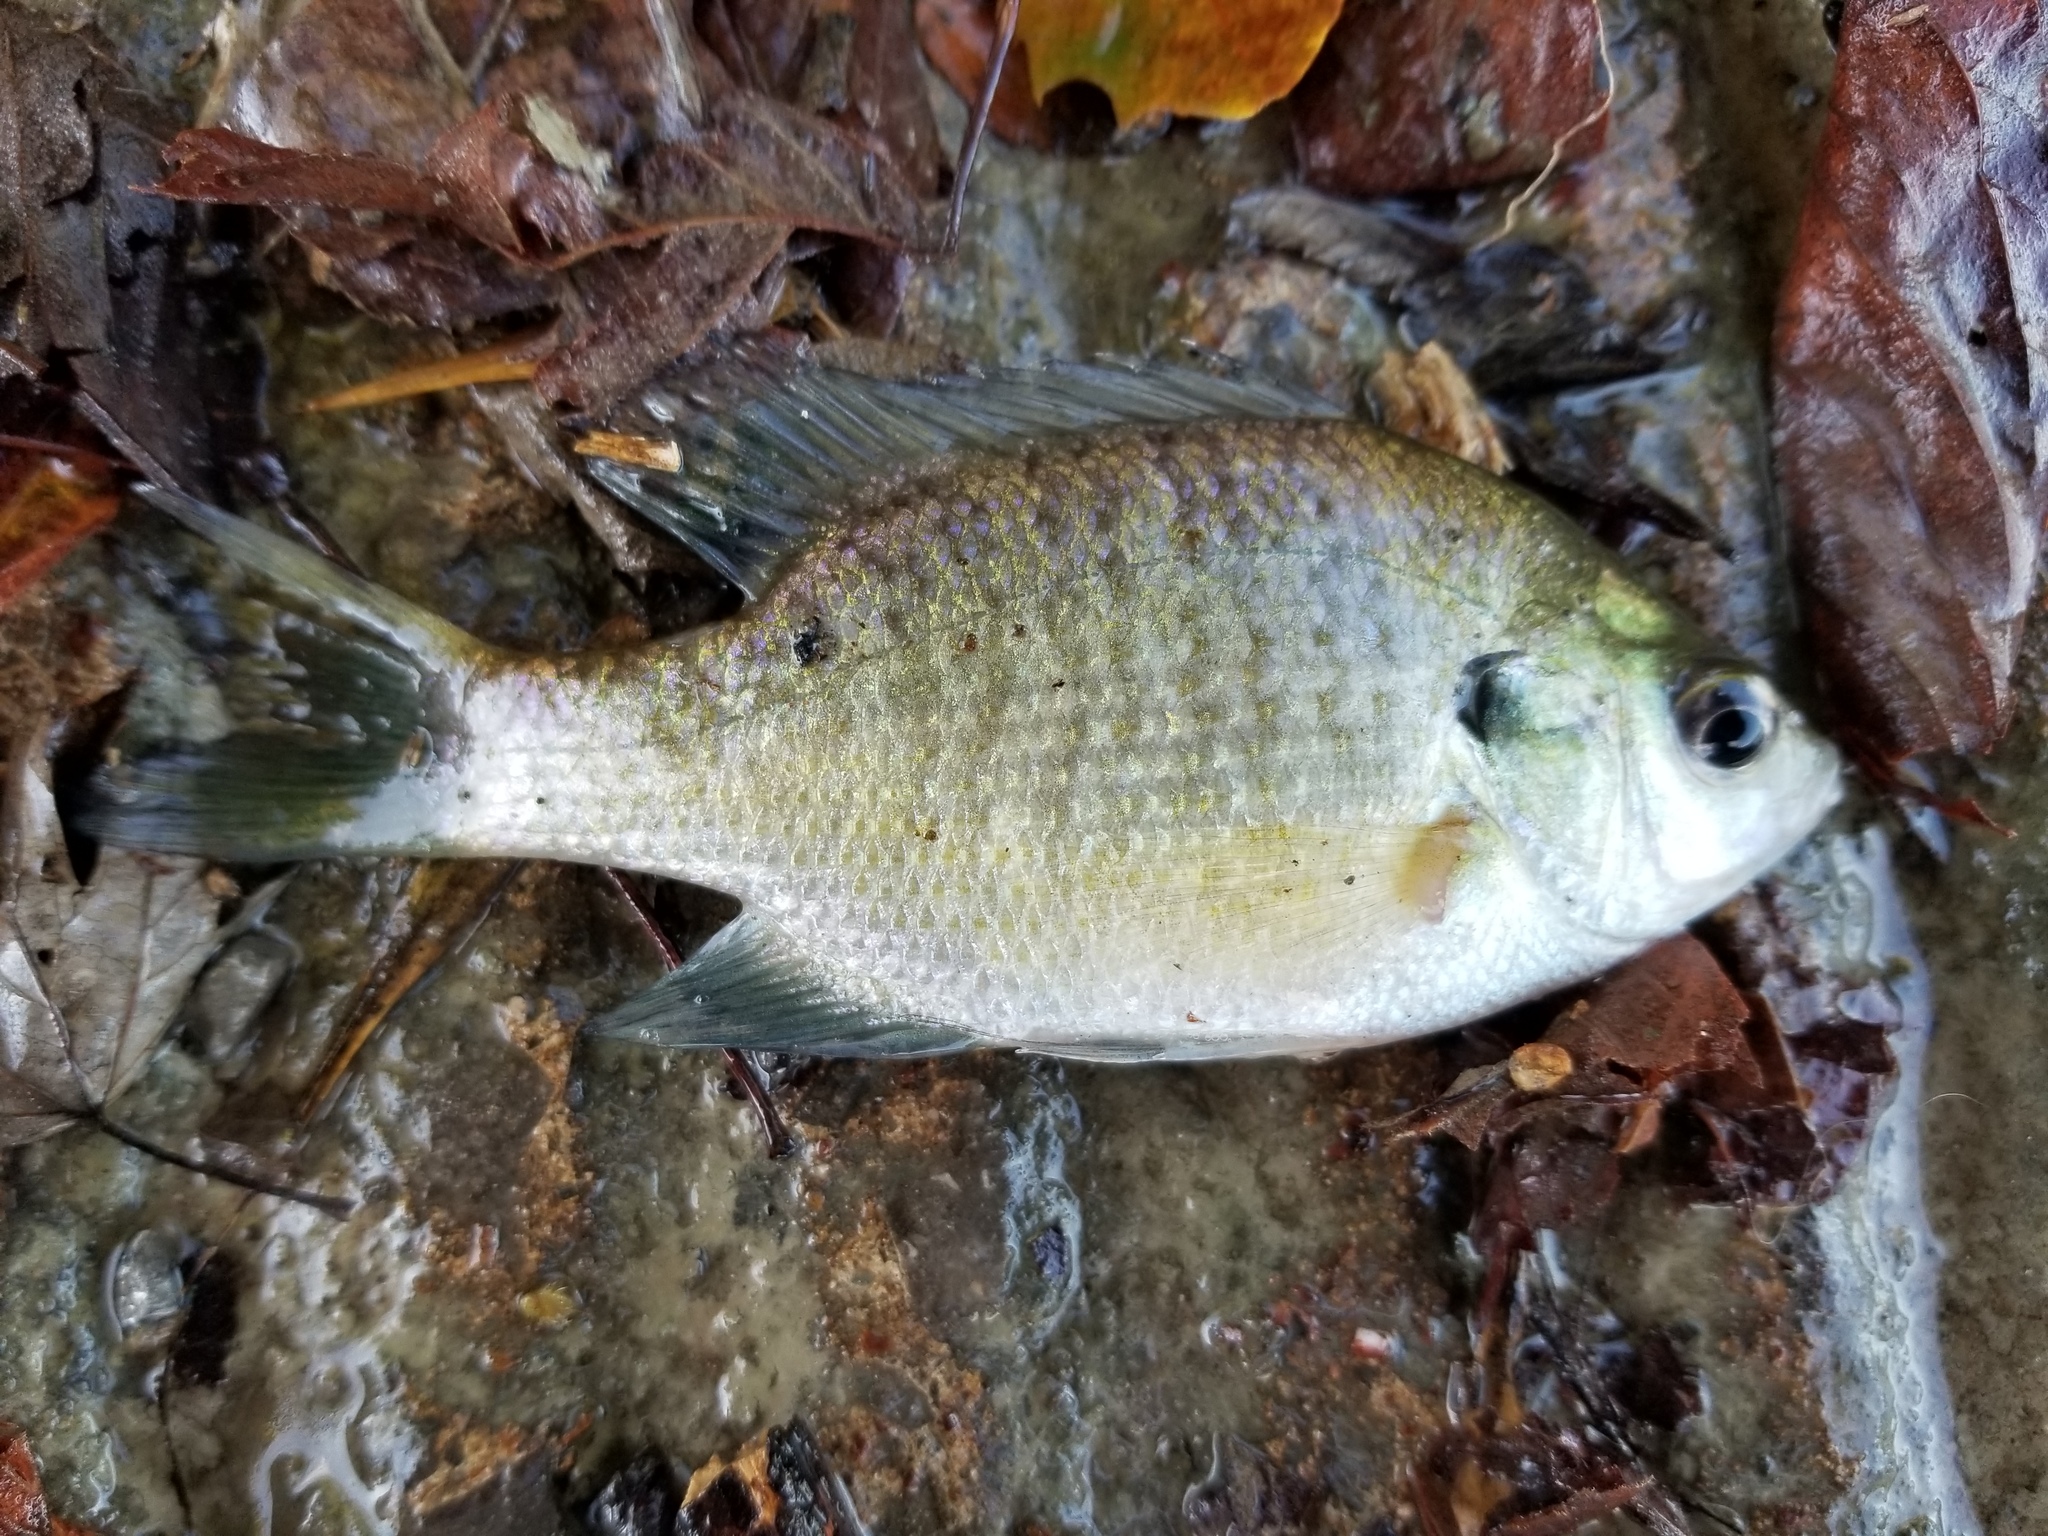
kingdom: Animalia
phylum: Chordata
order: Perciformes
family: Centrarchidae
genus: Lepomis
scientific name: Lepomis macrochirus
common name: Bluegill
